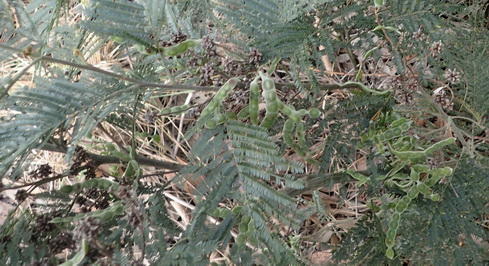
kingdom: Plantae
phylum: Tracheophyta
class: Magnoliopsida
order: Fabales
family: Fabaceae
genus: Acacia
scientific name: Acacia mearnsii
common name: Black wattle
